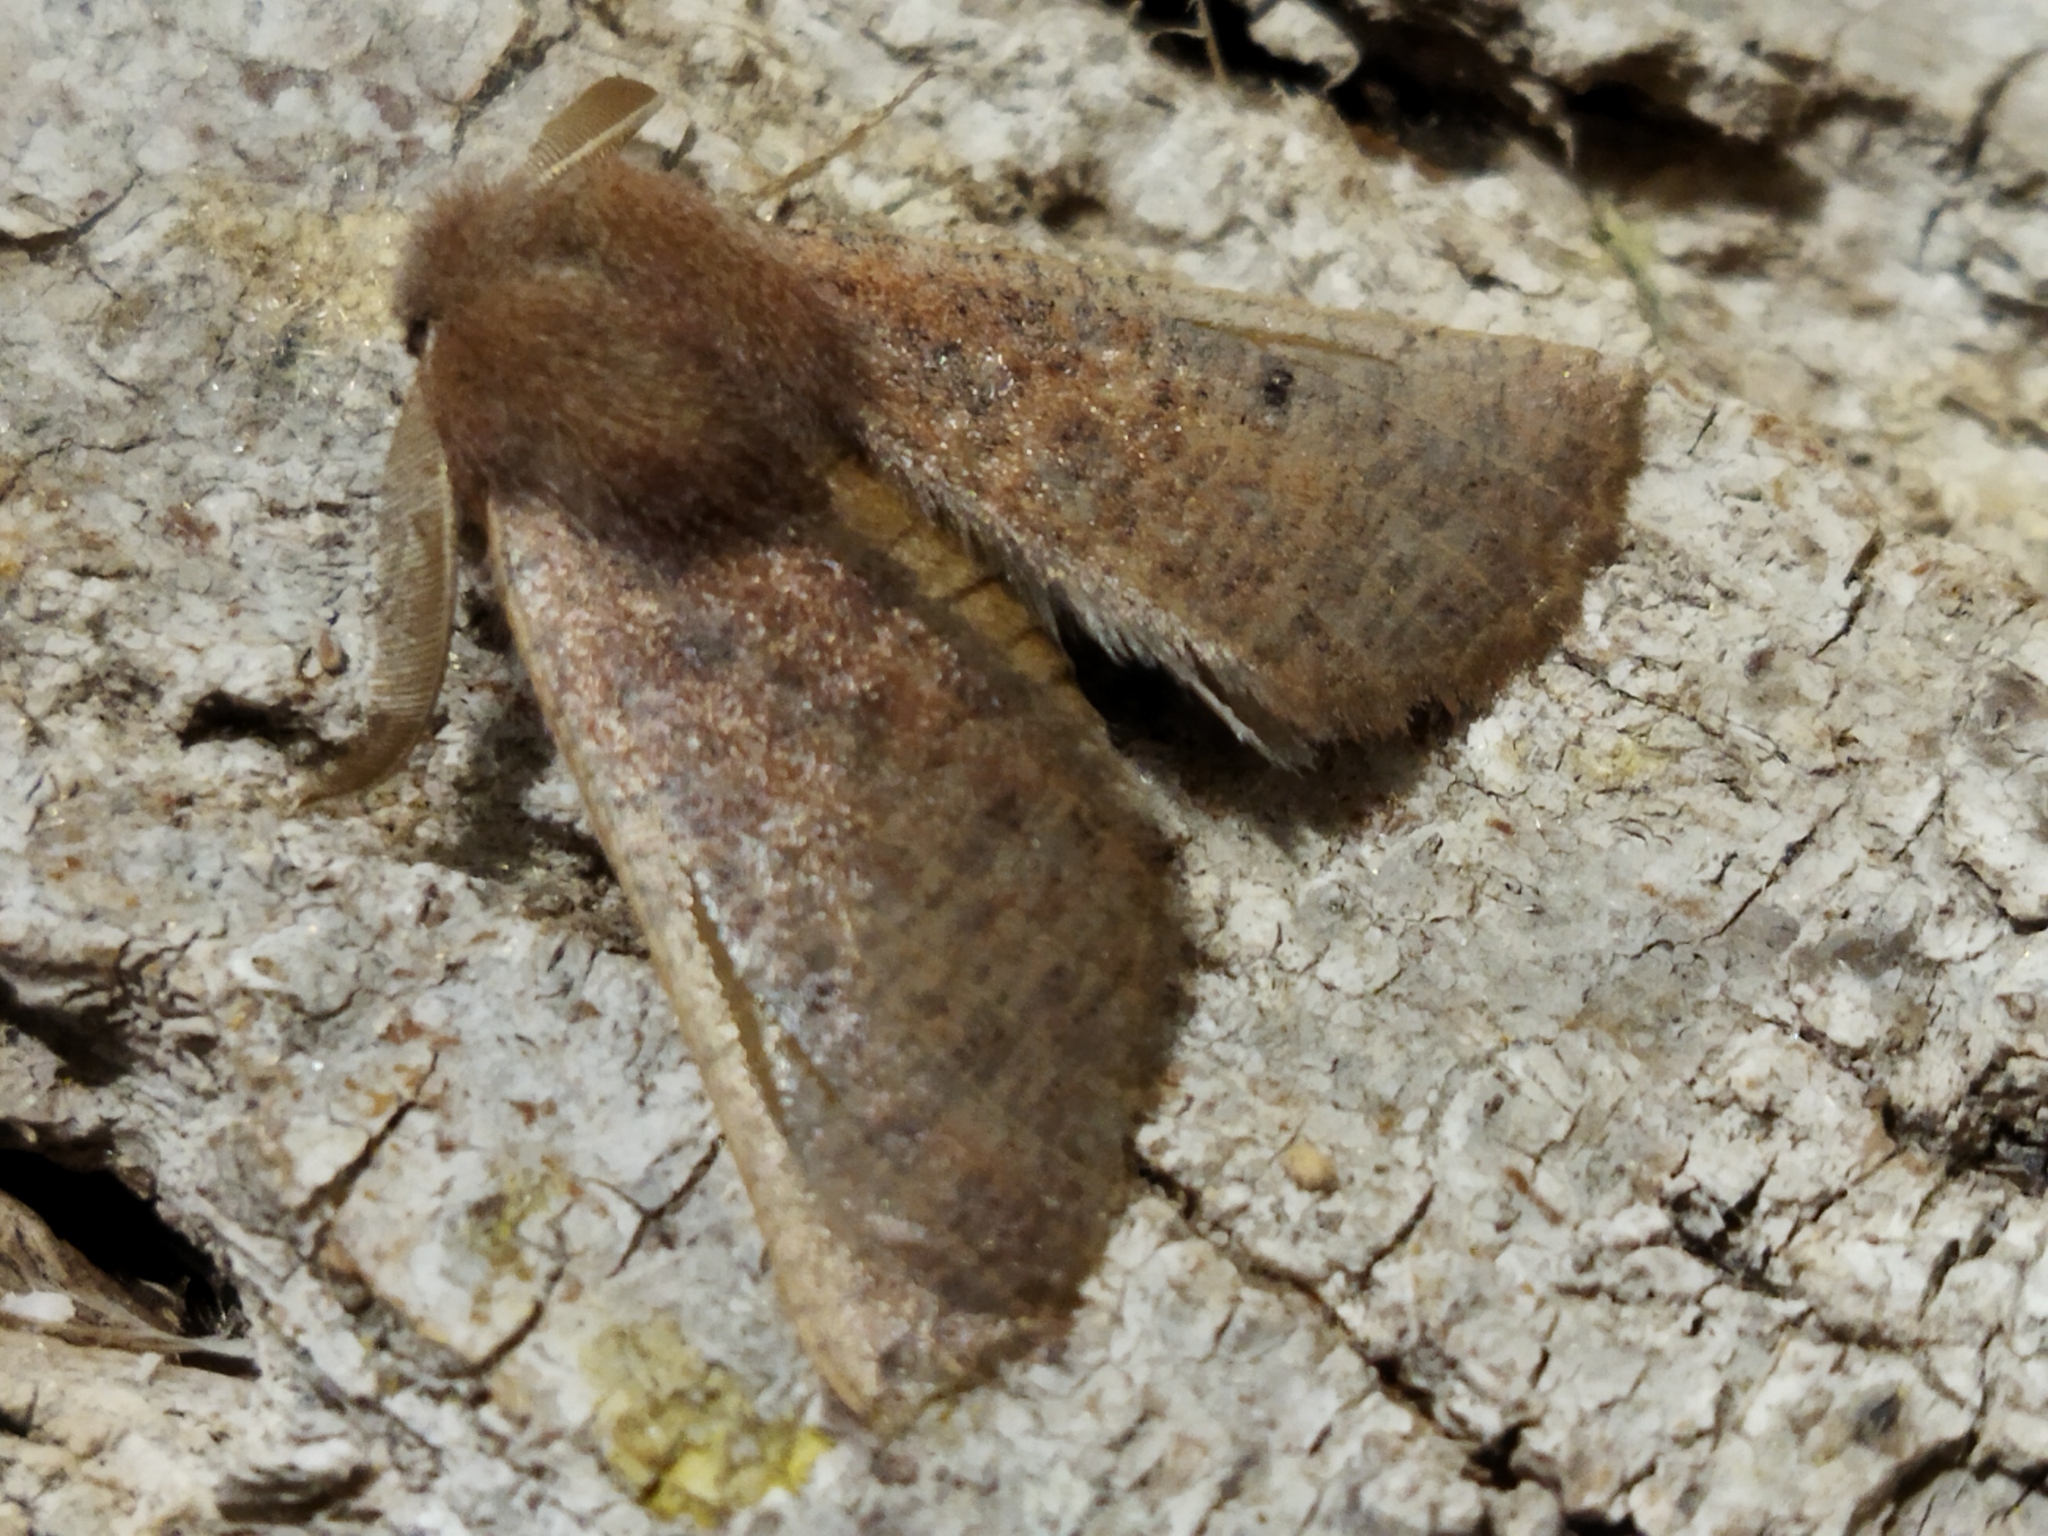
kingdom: Animalia
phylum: Arthropoda
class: Insecta
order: Lepidoptera
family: Geometridae
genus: Dasycorsa
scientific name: Dasycorsa modesta
